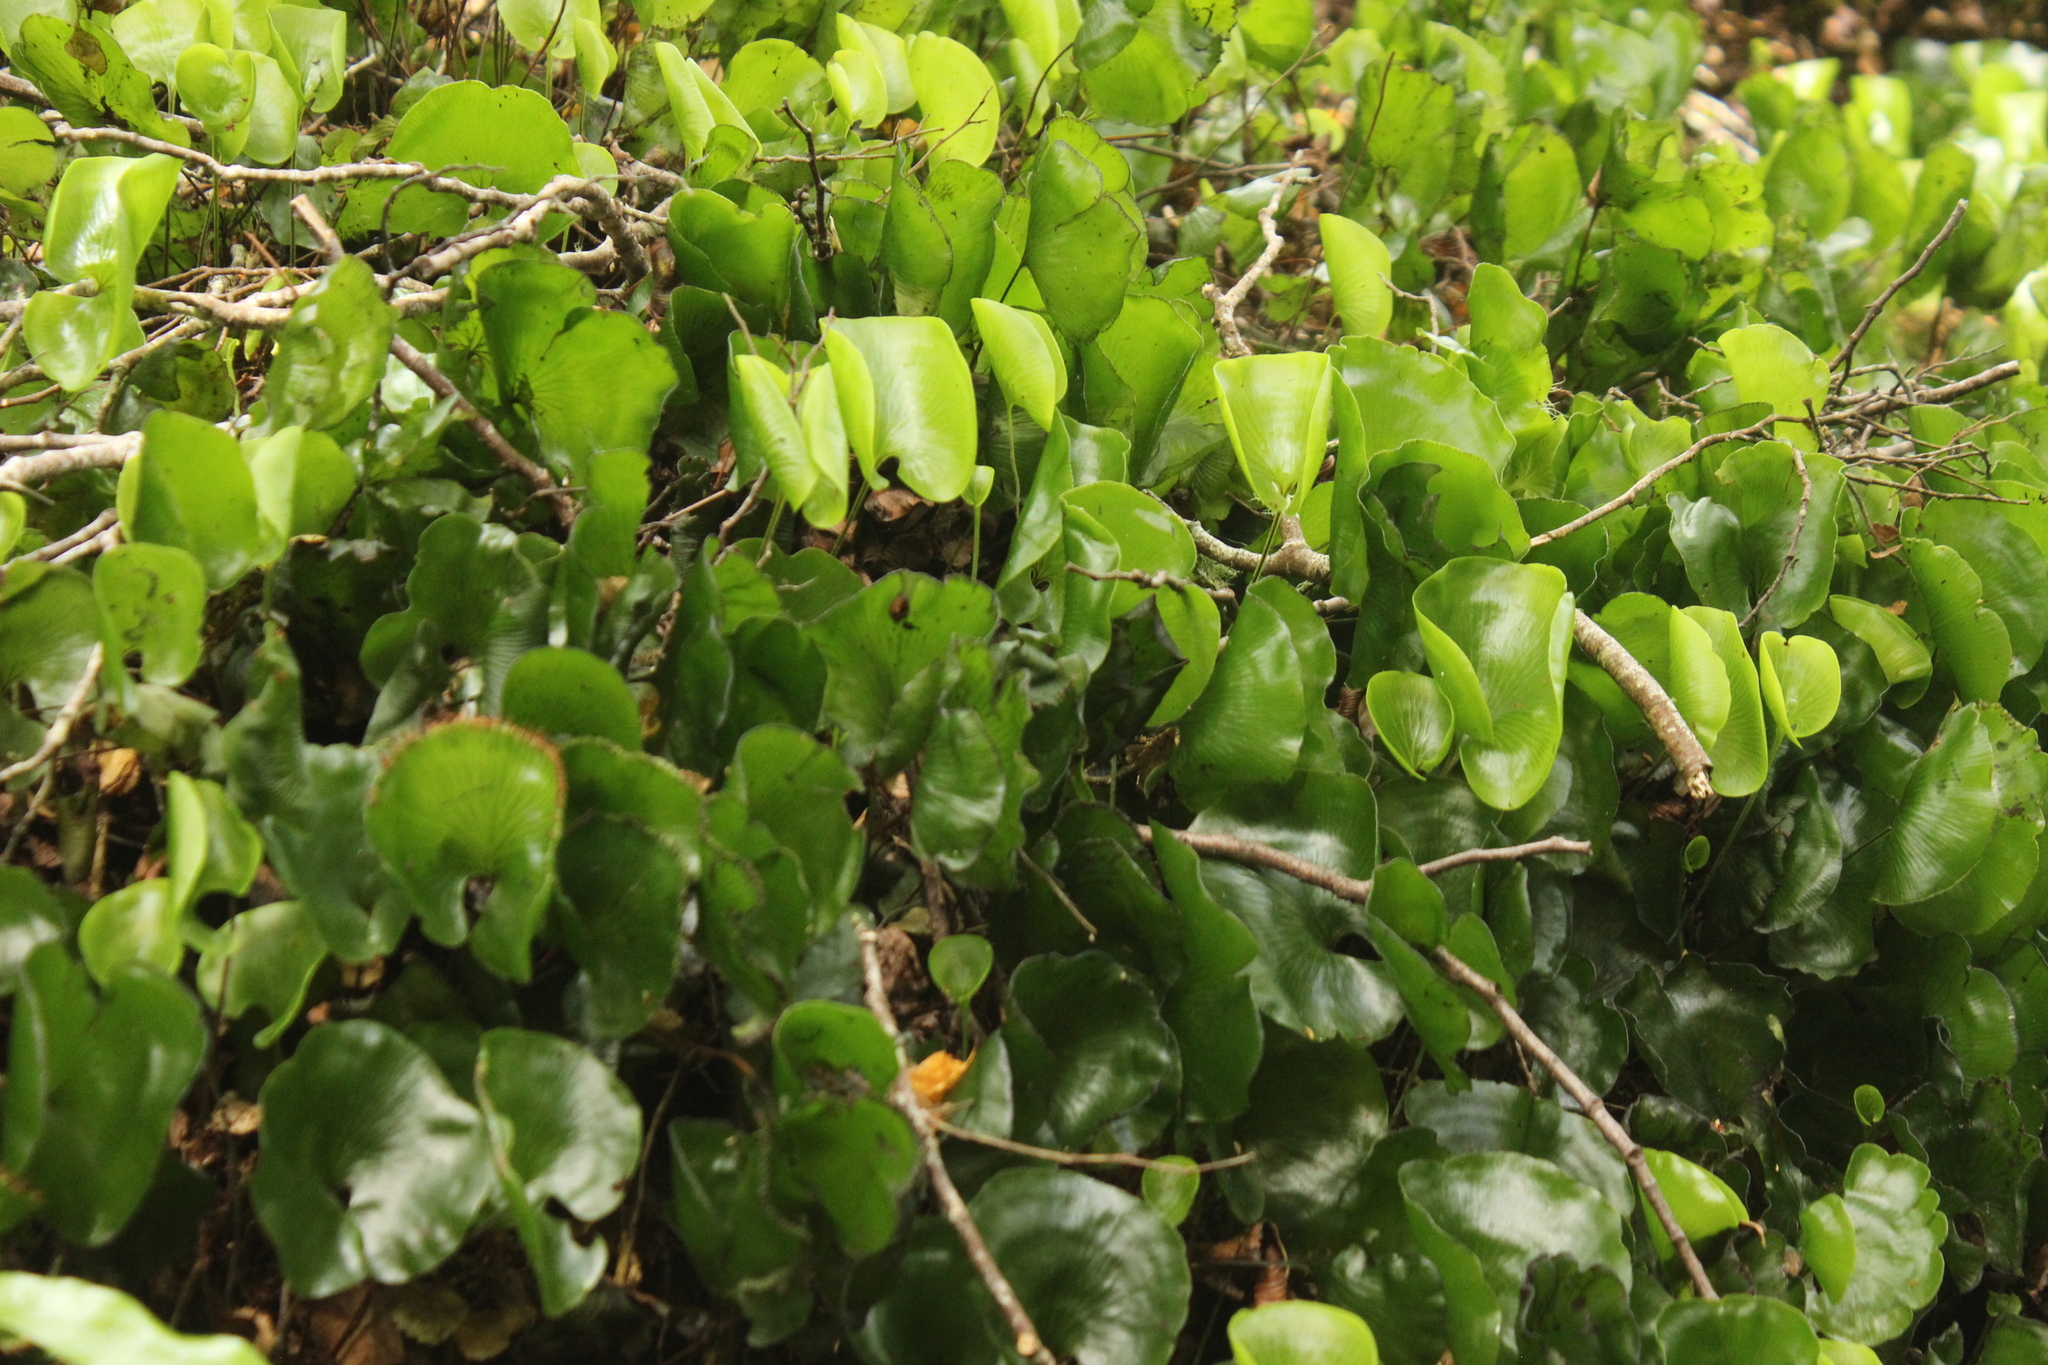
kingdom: Plantae
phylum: Tracheophyta
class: Polypodiopsida
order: Hymenophyllales
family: Hymenophyllaceae
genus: Hymenophyllum
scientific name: Hymenophyllum nephrophyllum
